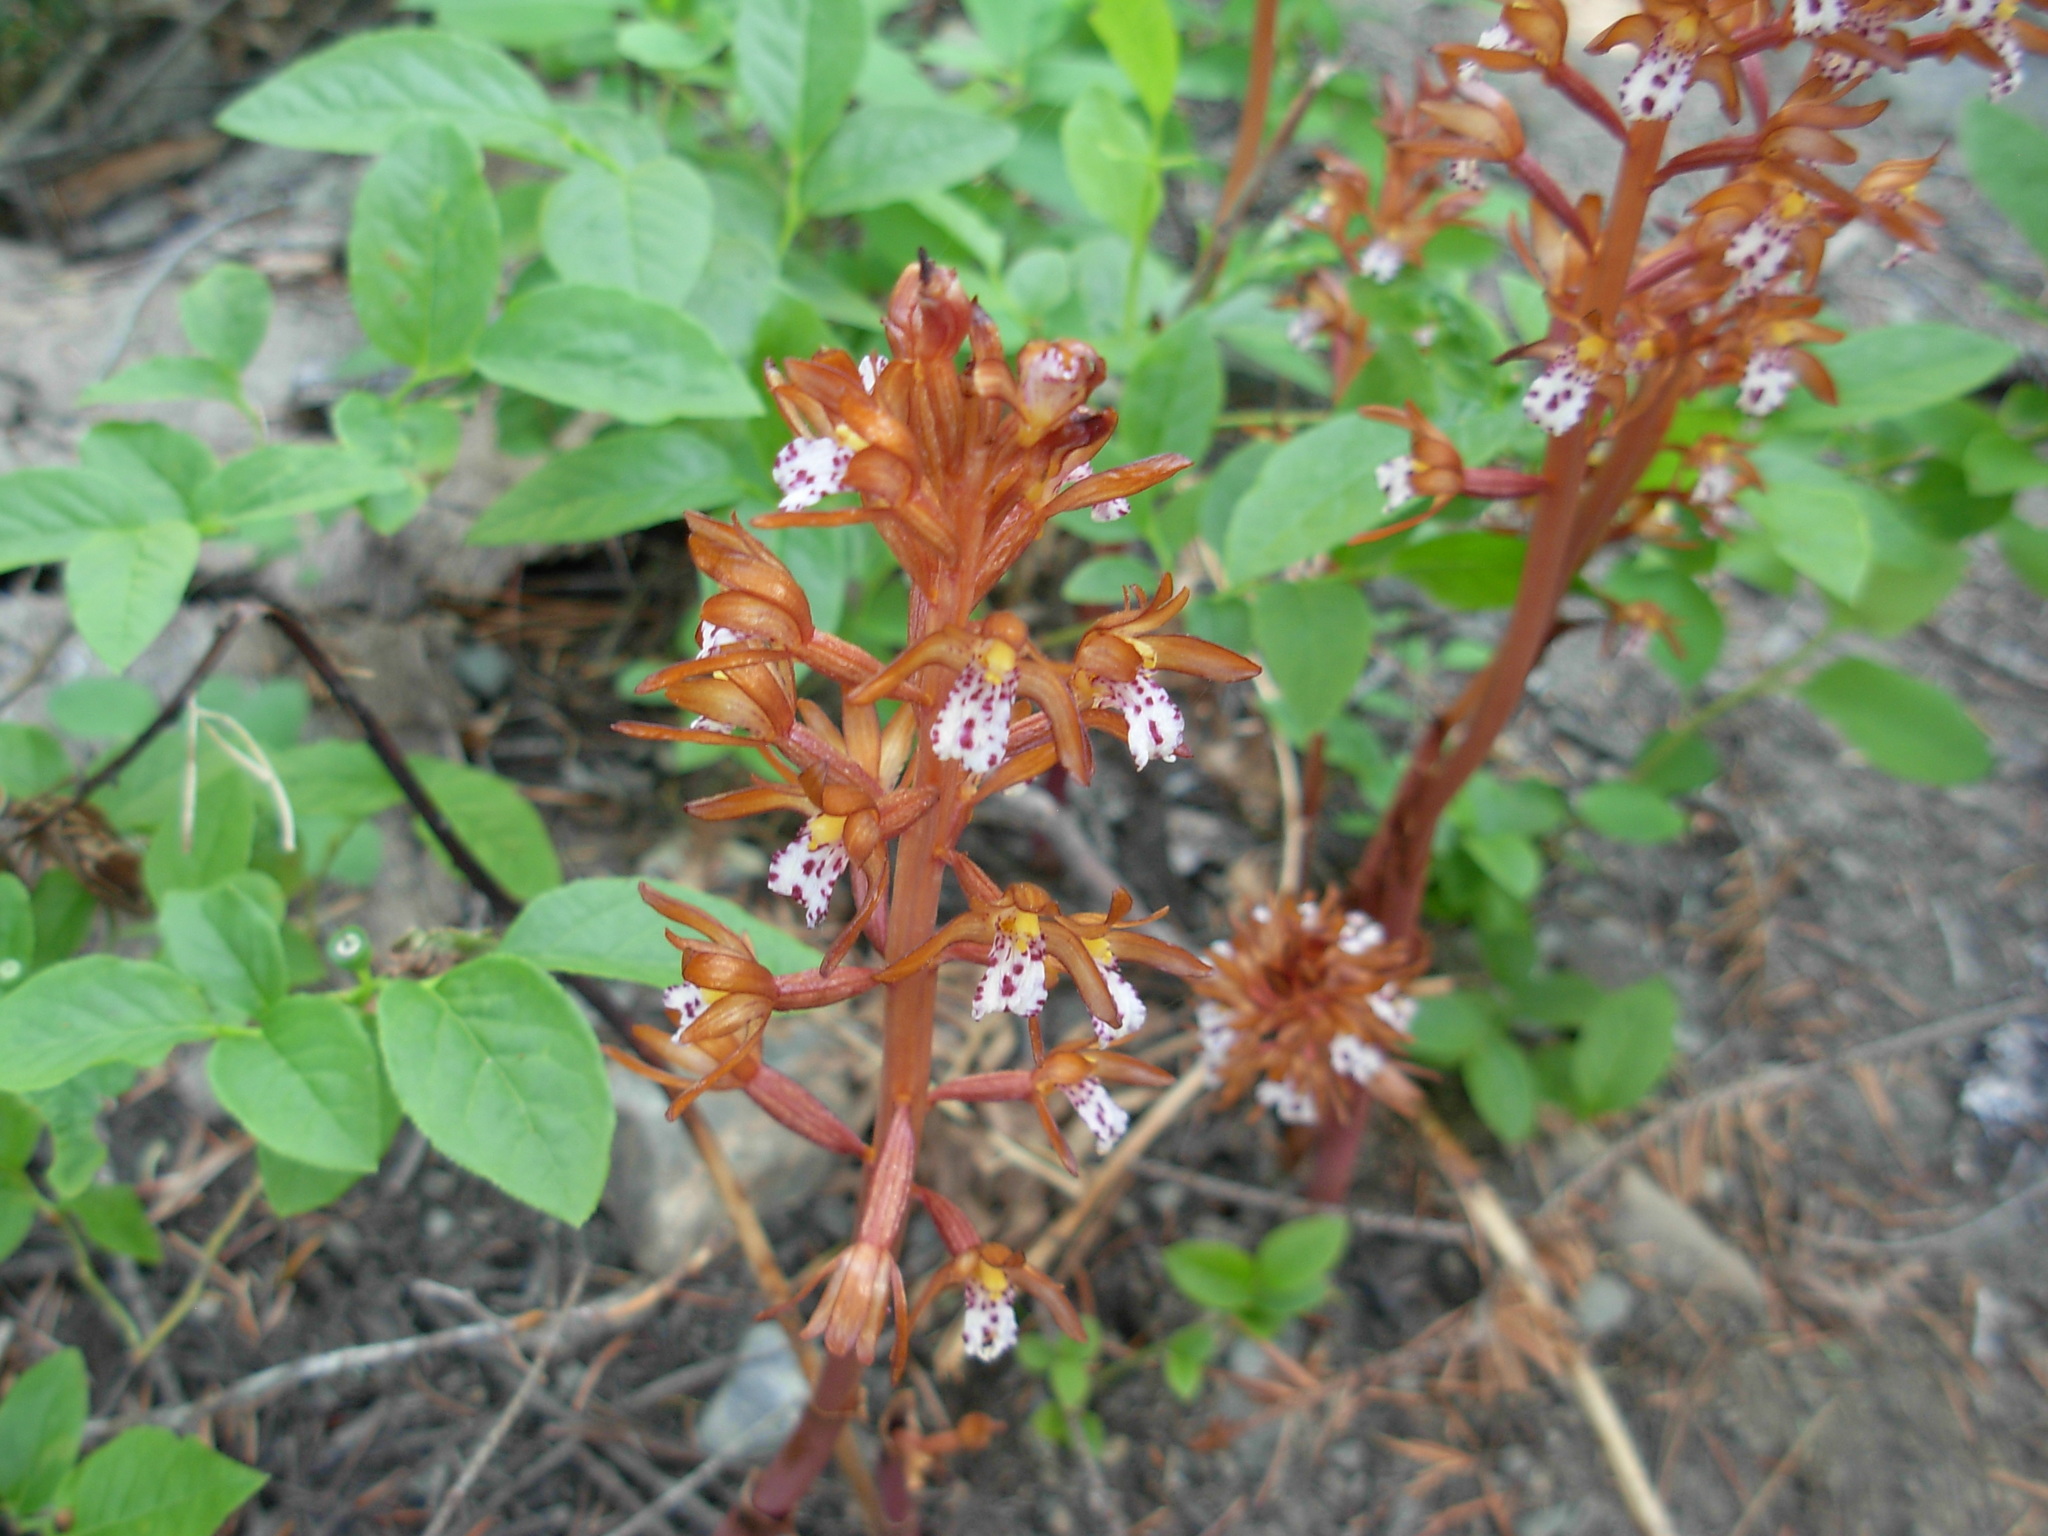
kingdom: Plantae
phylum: Tracheophyta
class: Liliopsida
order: Asparagales
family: Orchidaceae
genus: Corallorhiza
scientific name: Corallorhiza maculata
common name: Spotted coralroot
